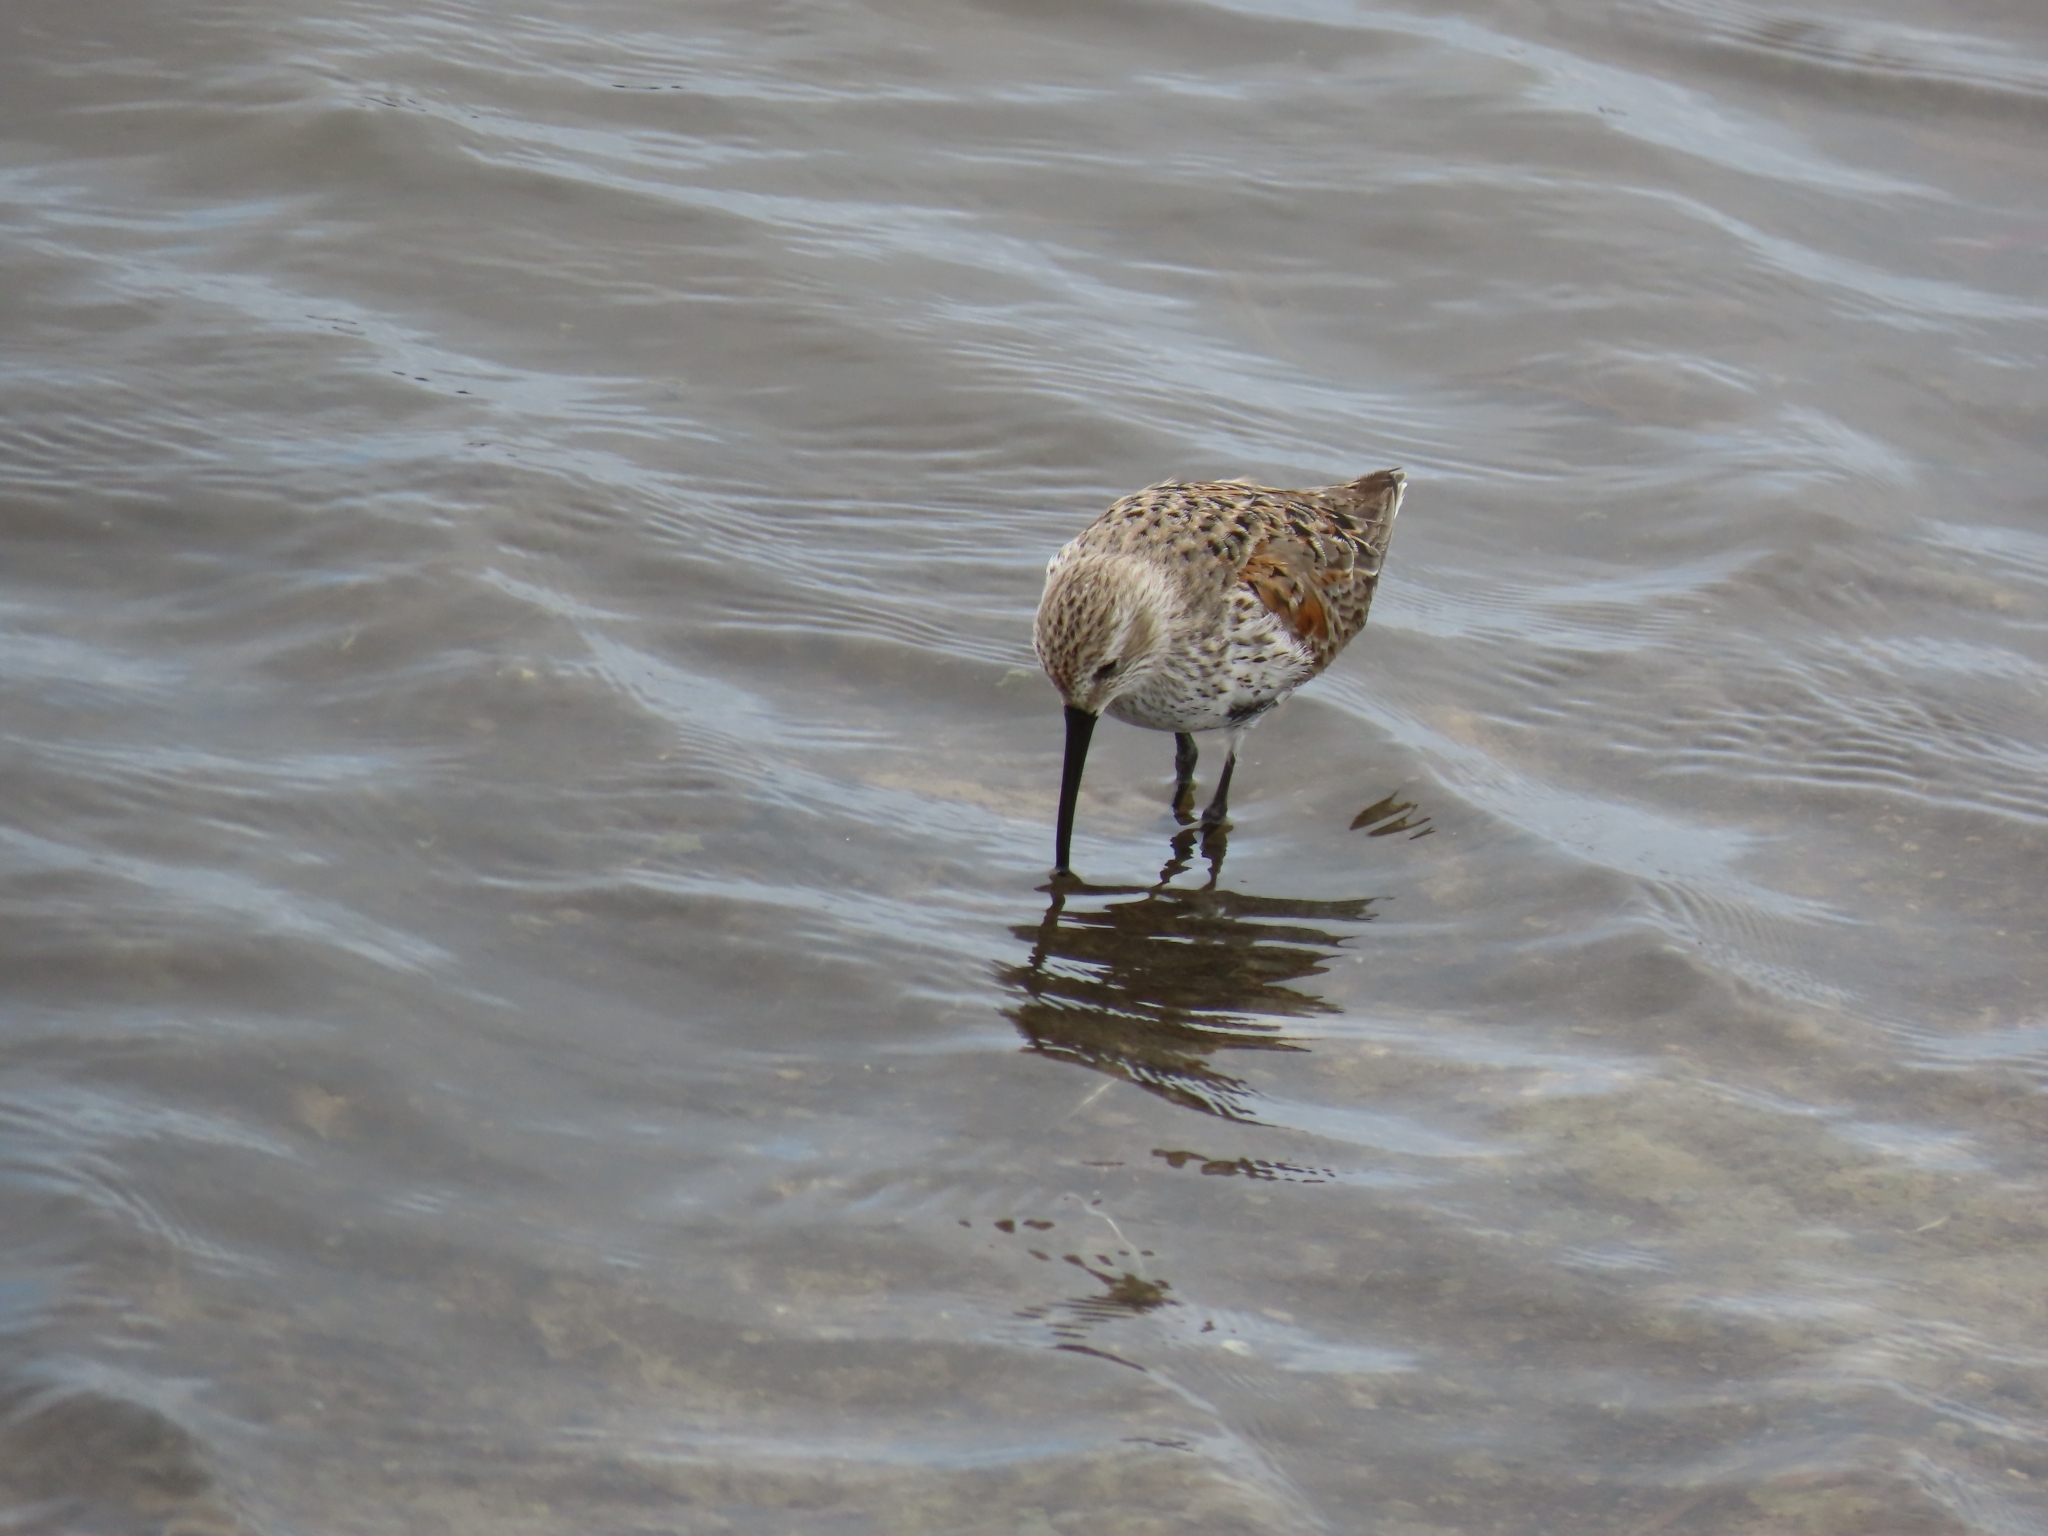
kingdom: Animalia
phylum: Chordata
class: Aves
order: Charadriiformes
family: Scolopacidae
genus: Calidris
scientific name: Calidris alpina
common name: Dunlin
